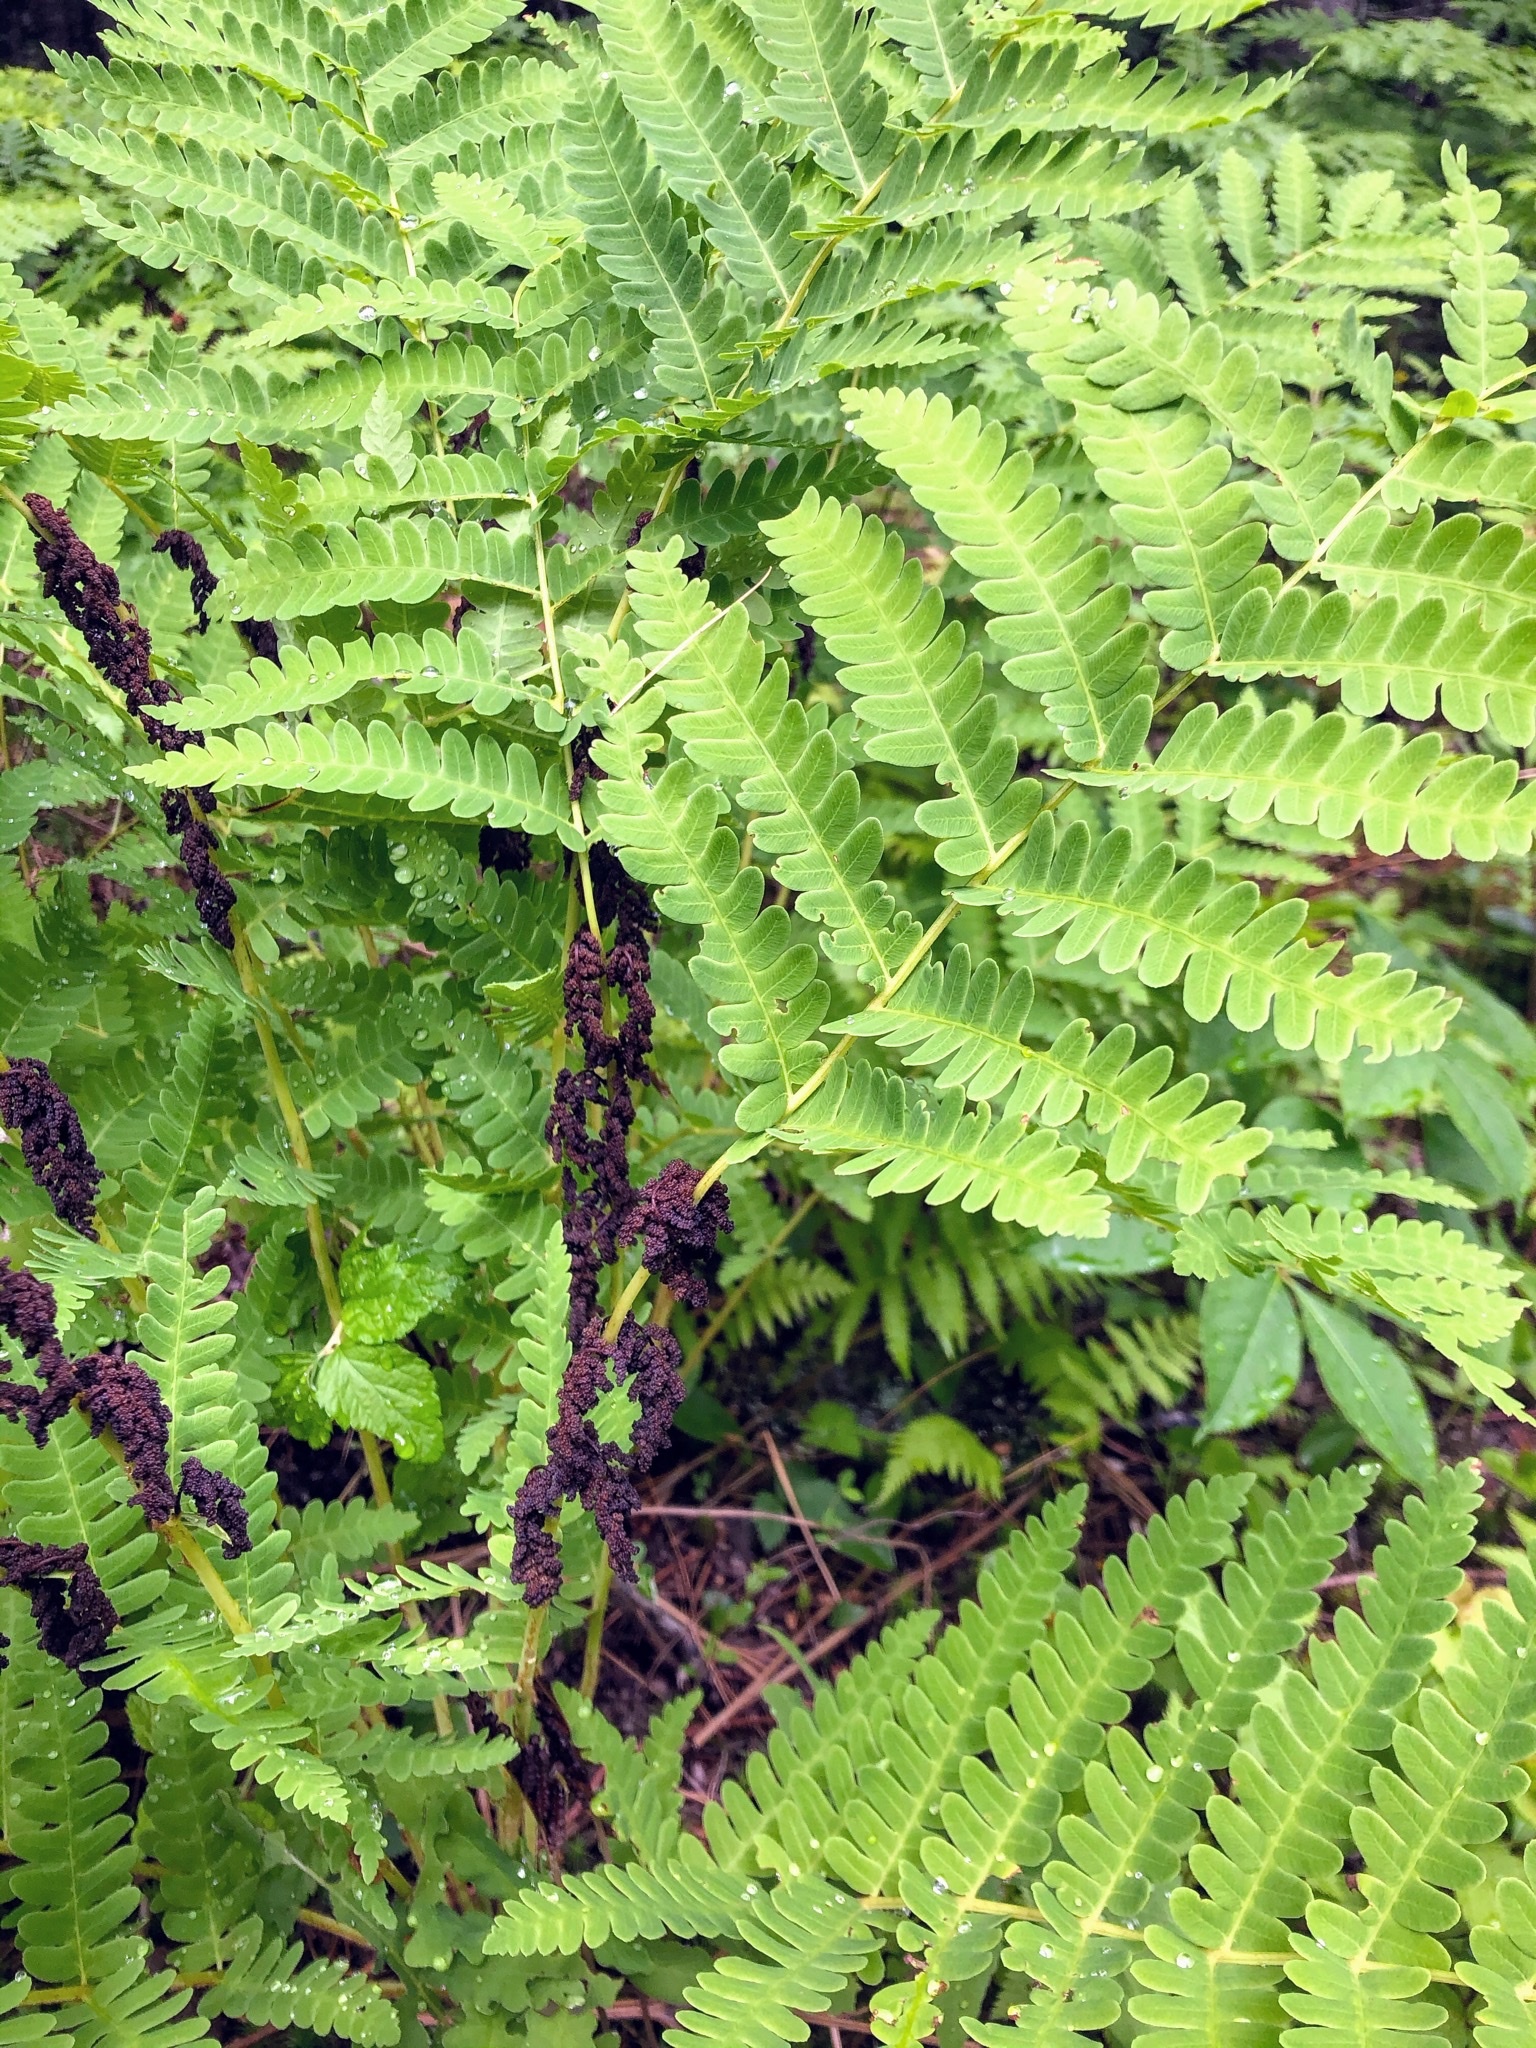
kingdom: Plantae
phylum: Tracheophyta
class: Polypodiopsida
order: Osmundales
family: Osmundaceae
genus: Claytosmunda
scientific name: Claytosmunda claytoniana
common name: Clayton's fern
